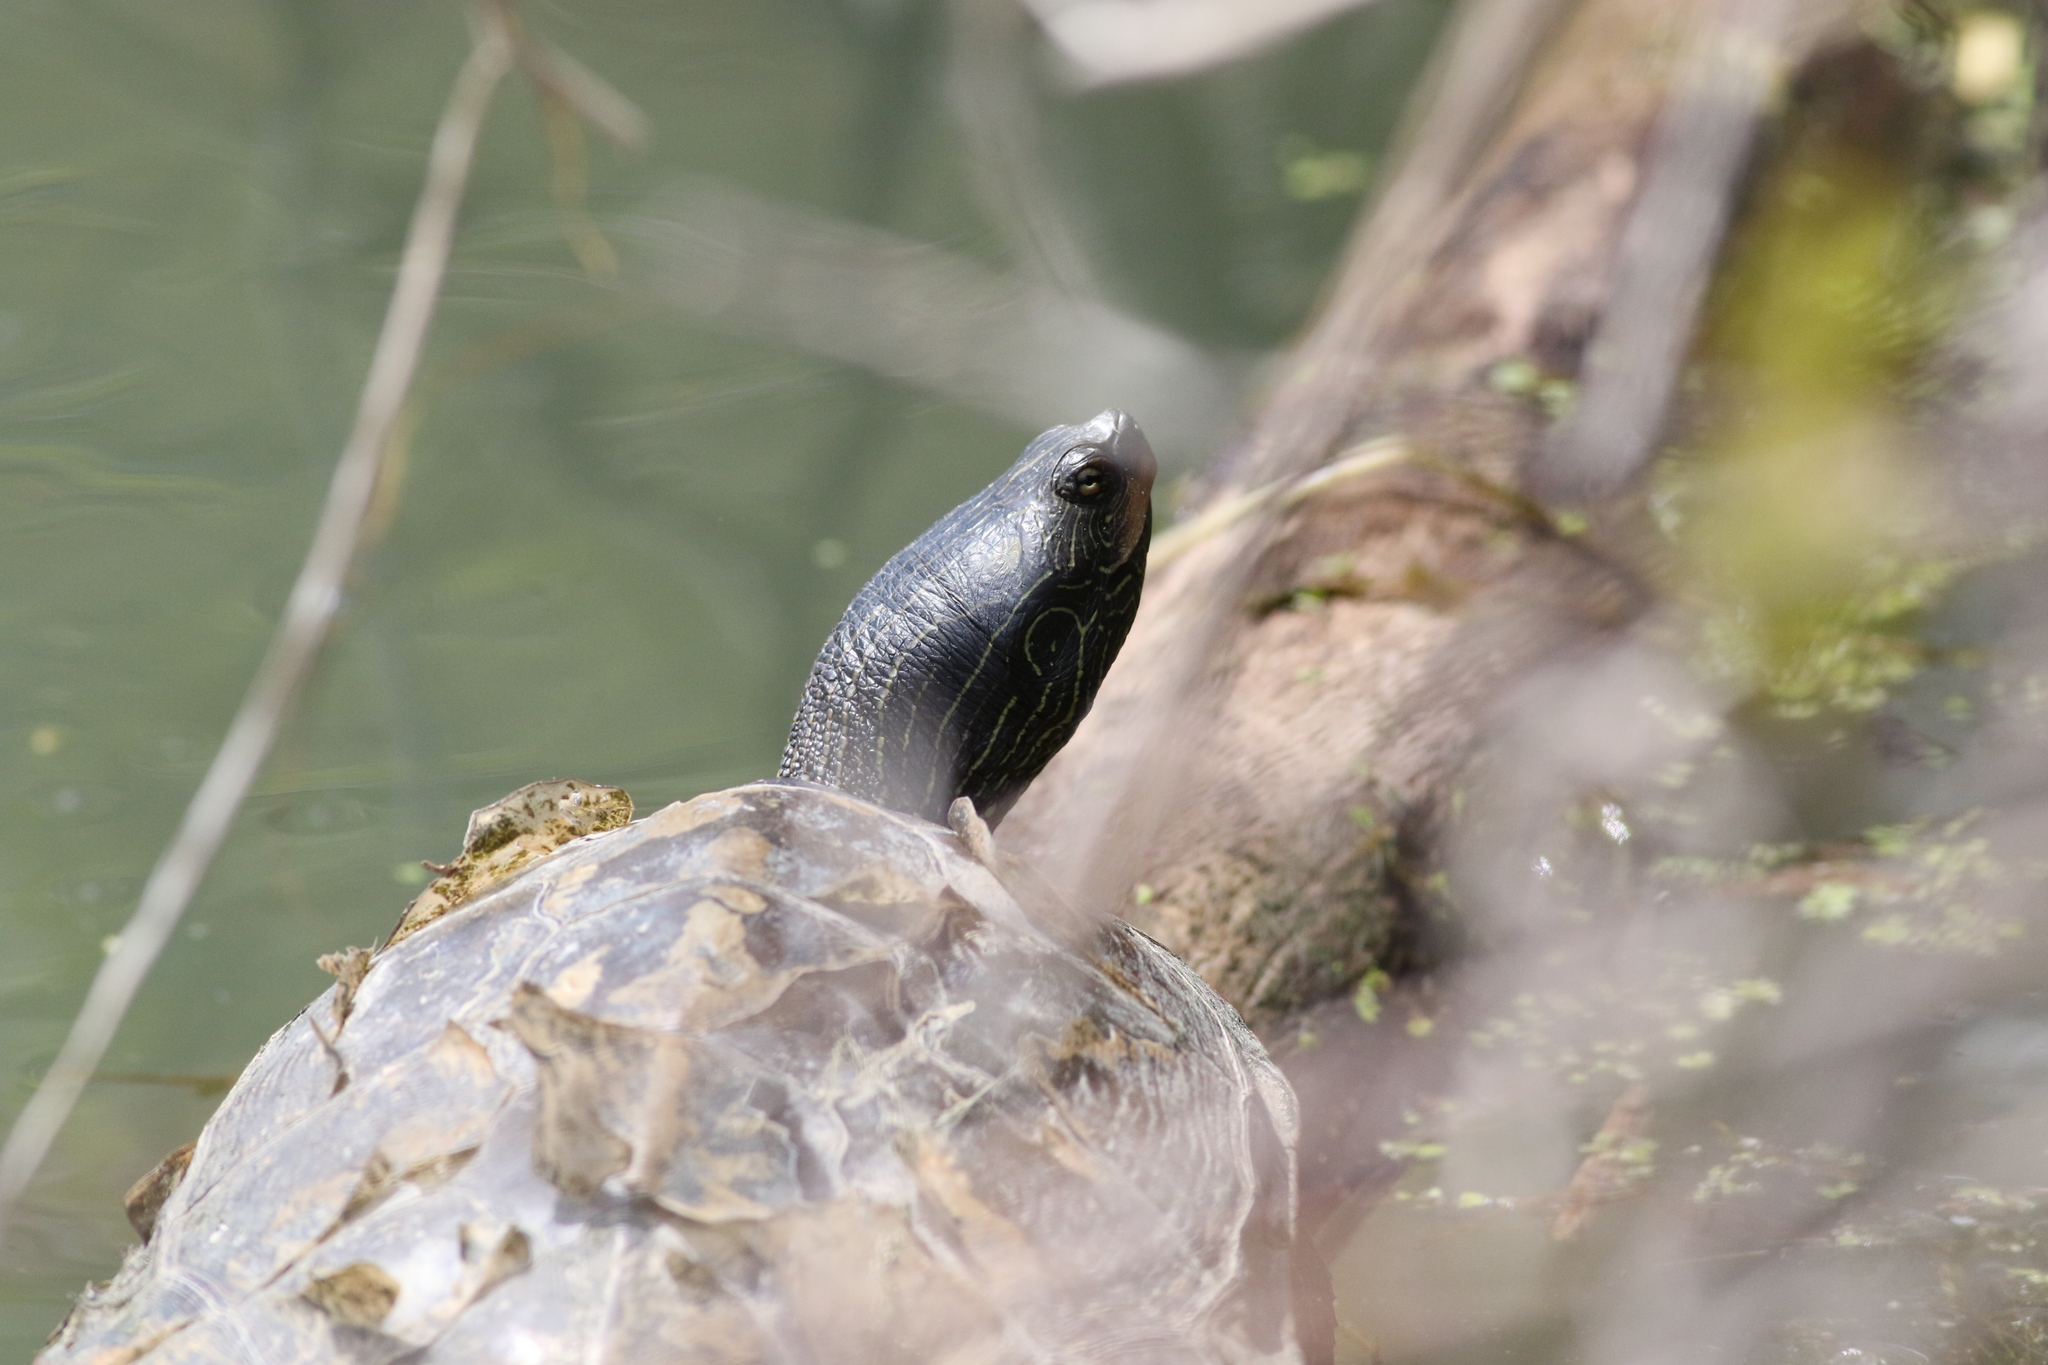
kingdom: Animalia
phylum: Chordata
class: Testudines
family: Emydidae
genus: Graptemys
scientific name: Graptemys geographica
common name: Common map turtle
